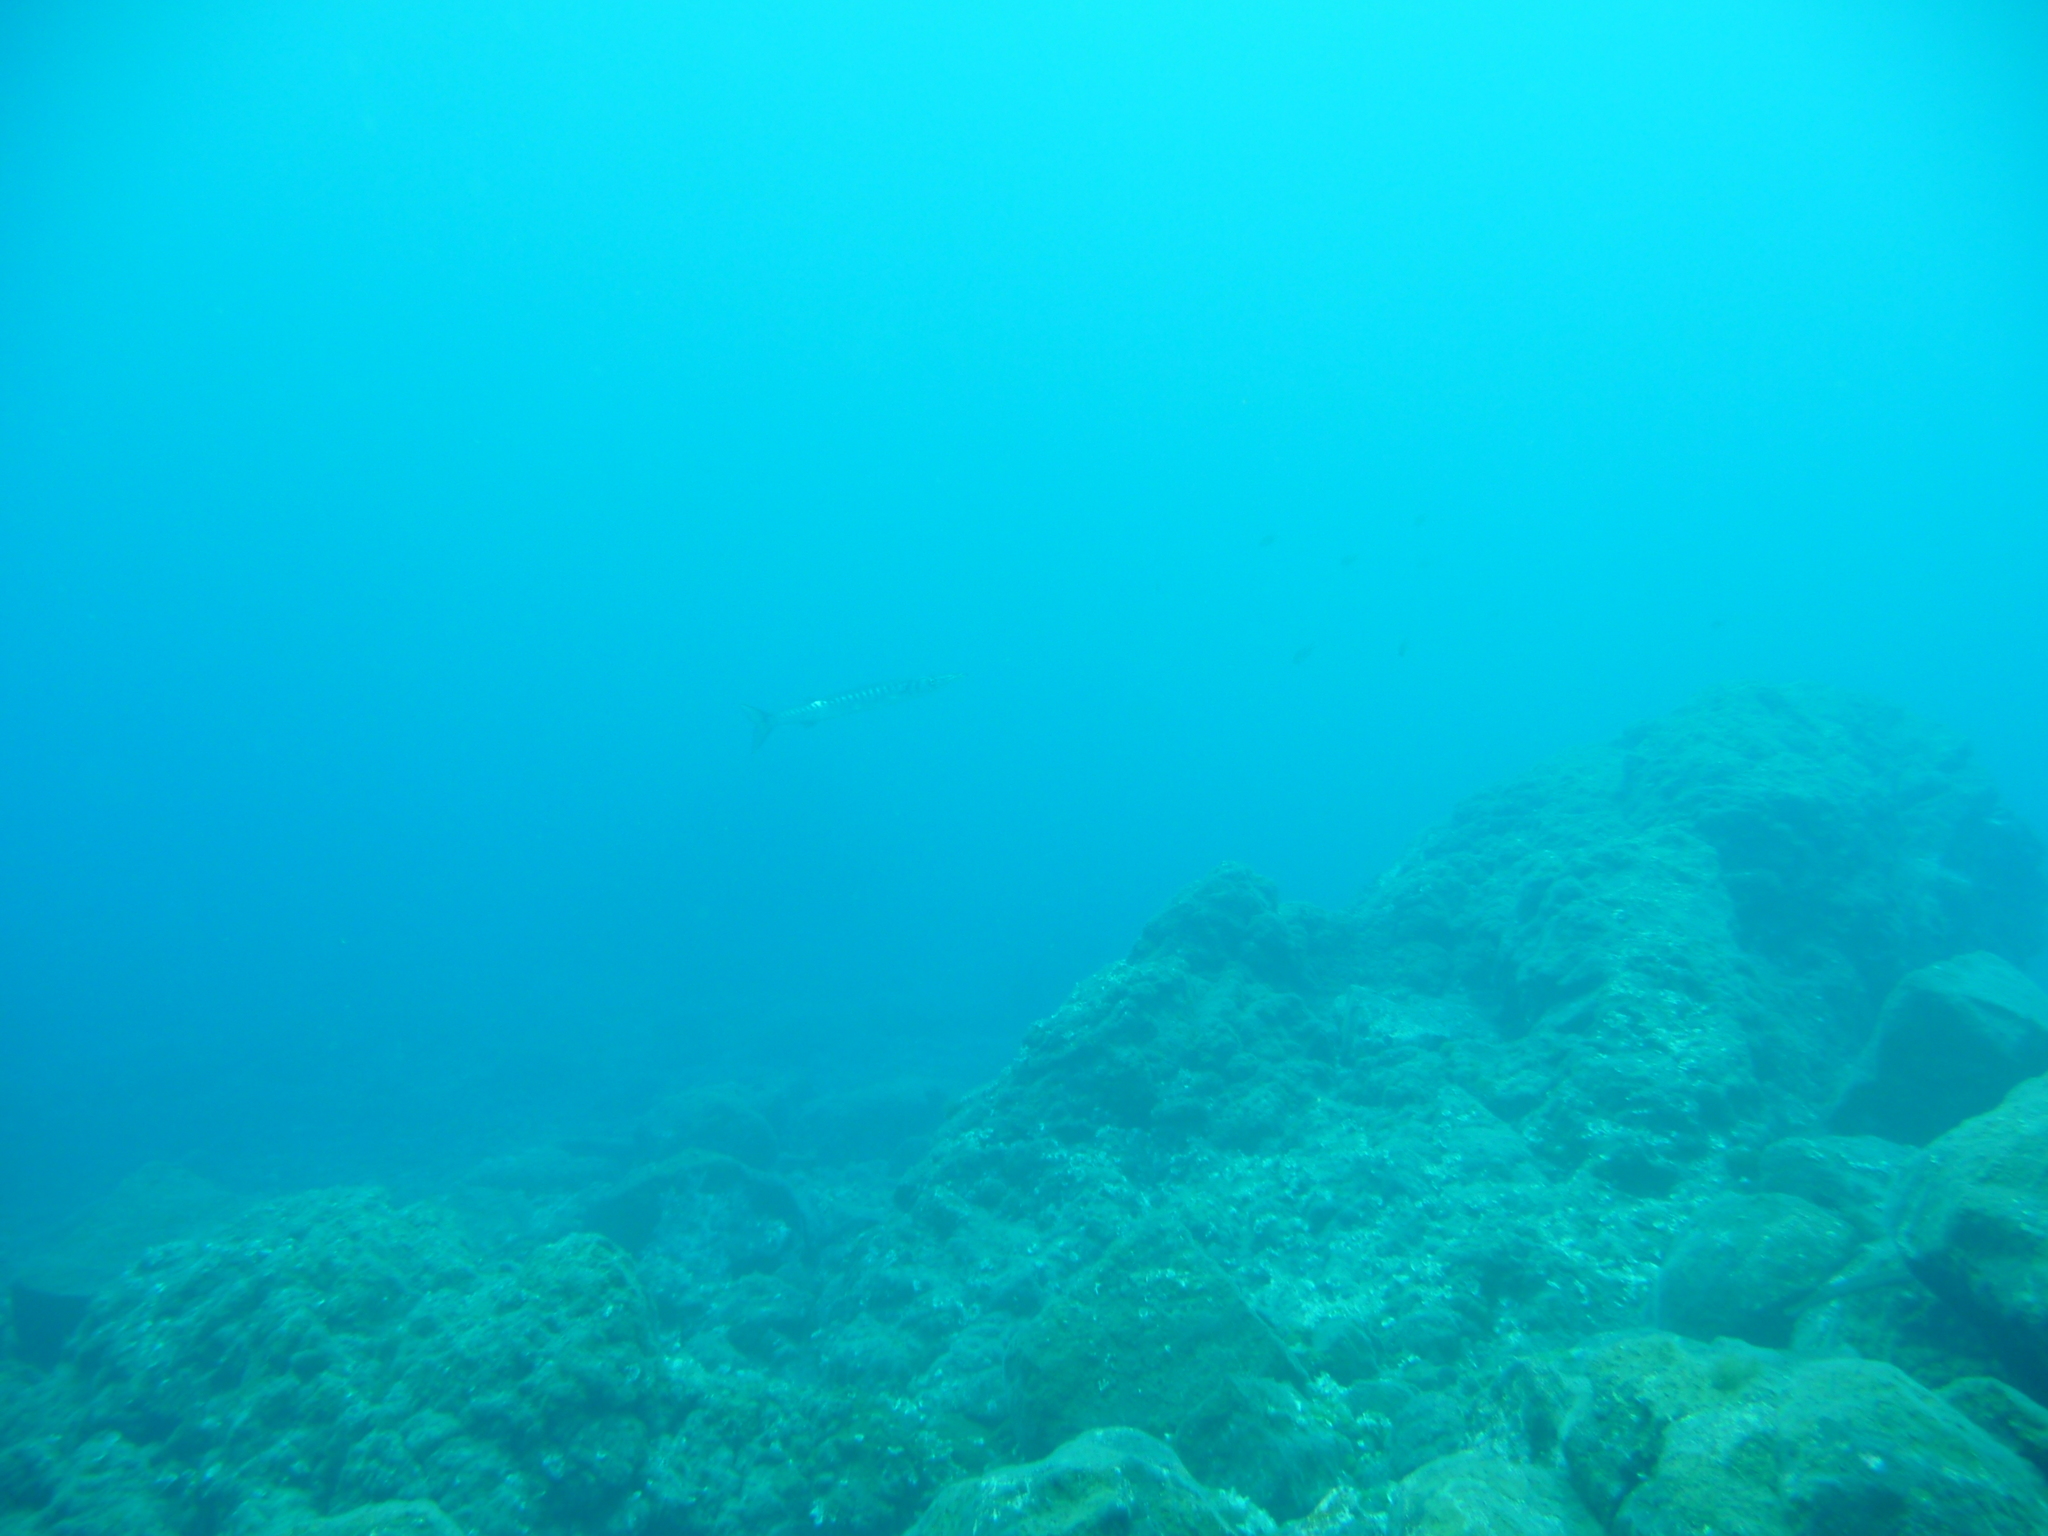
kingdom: Animalia
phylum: Chordata
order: Perciformes
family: Sphyraenidae
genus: Sphyraena
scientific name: Sphyraena viridensis
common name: Yellowmouth barracuda
